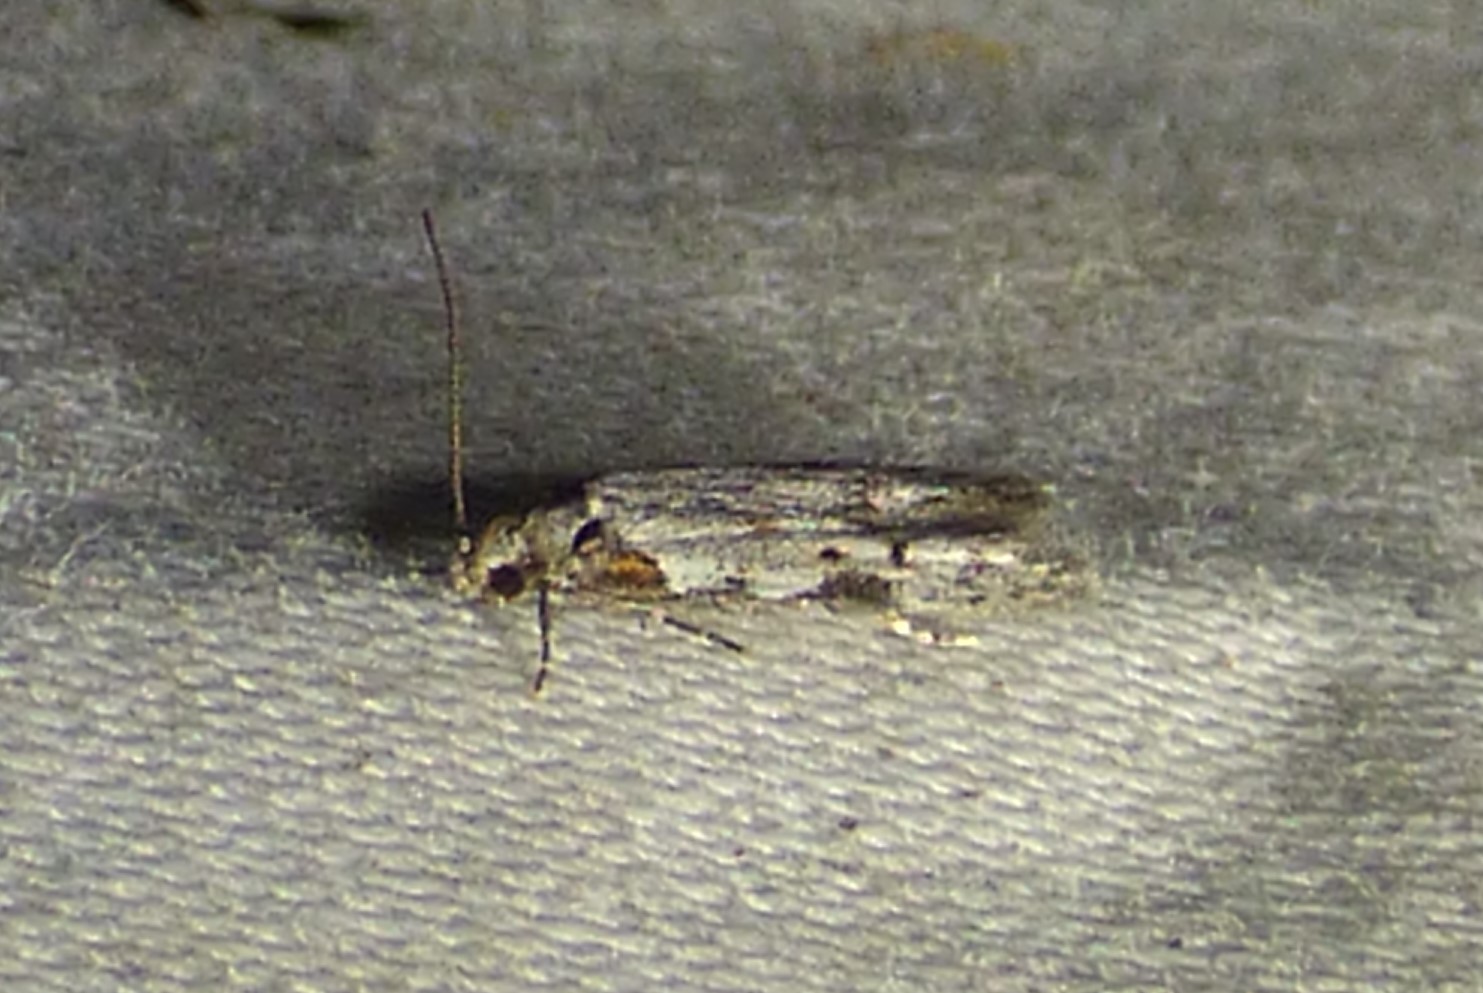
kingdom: Animalia
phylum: Arthropoda
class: Insecta
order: Lepidoptera
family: Autostichidae
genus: Taygete
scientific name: Taygete attributella
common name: Triangle-marked twirler moth
